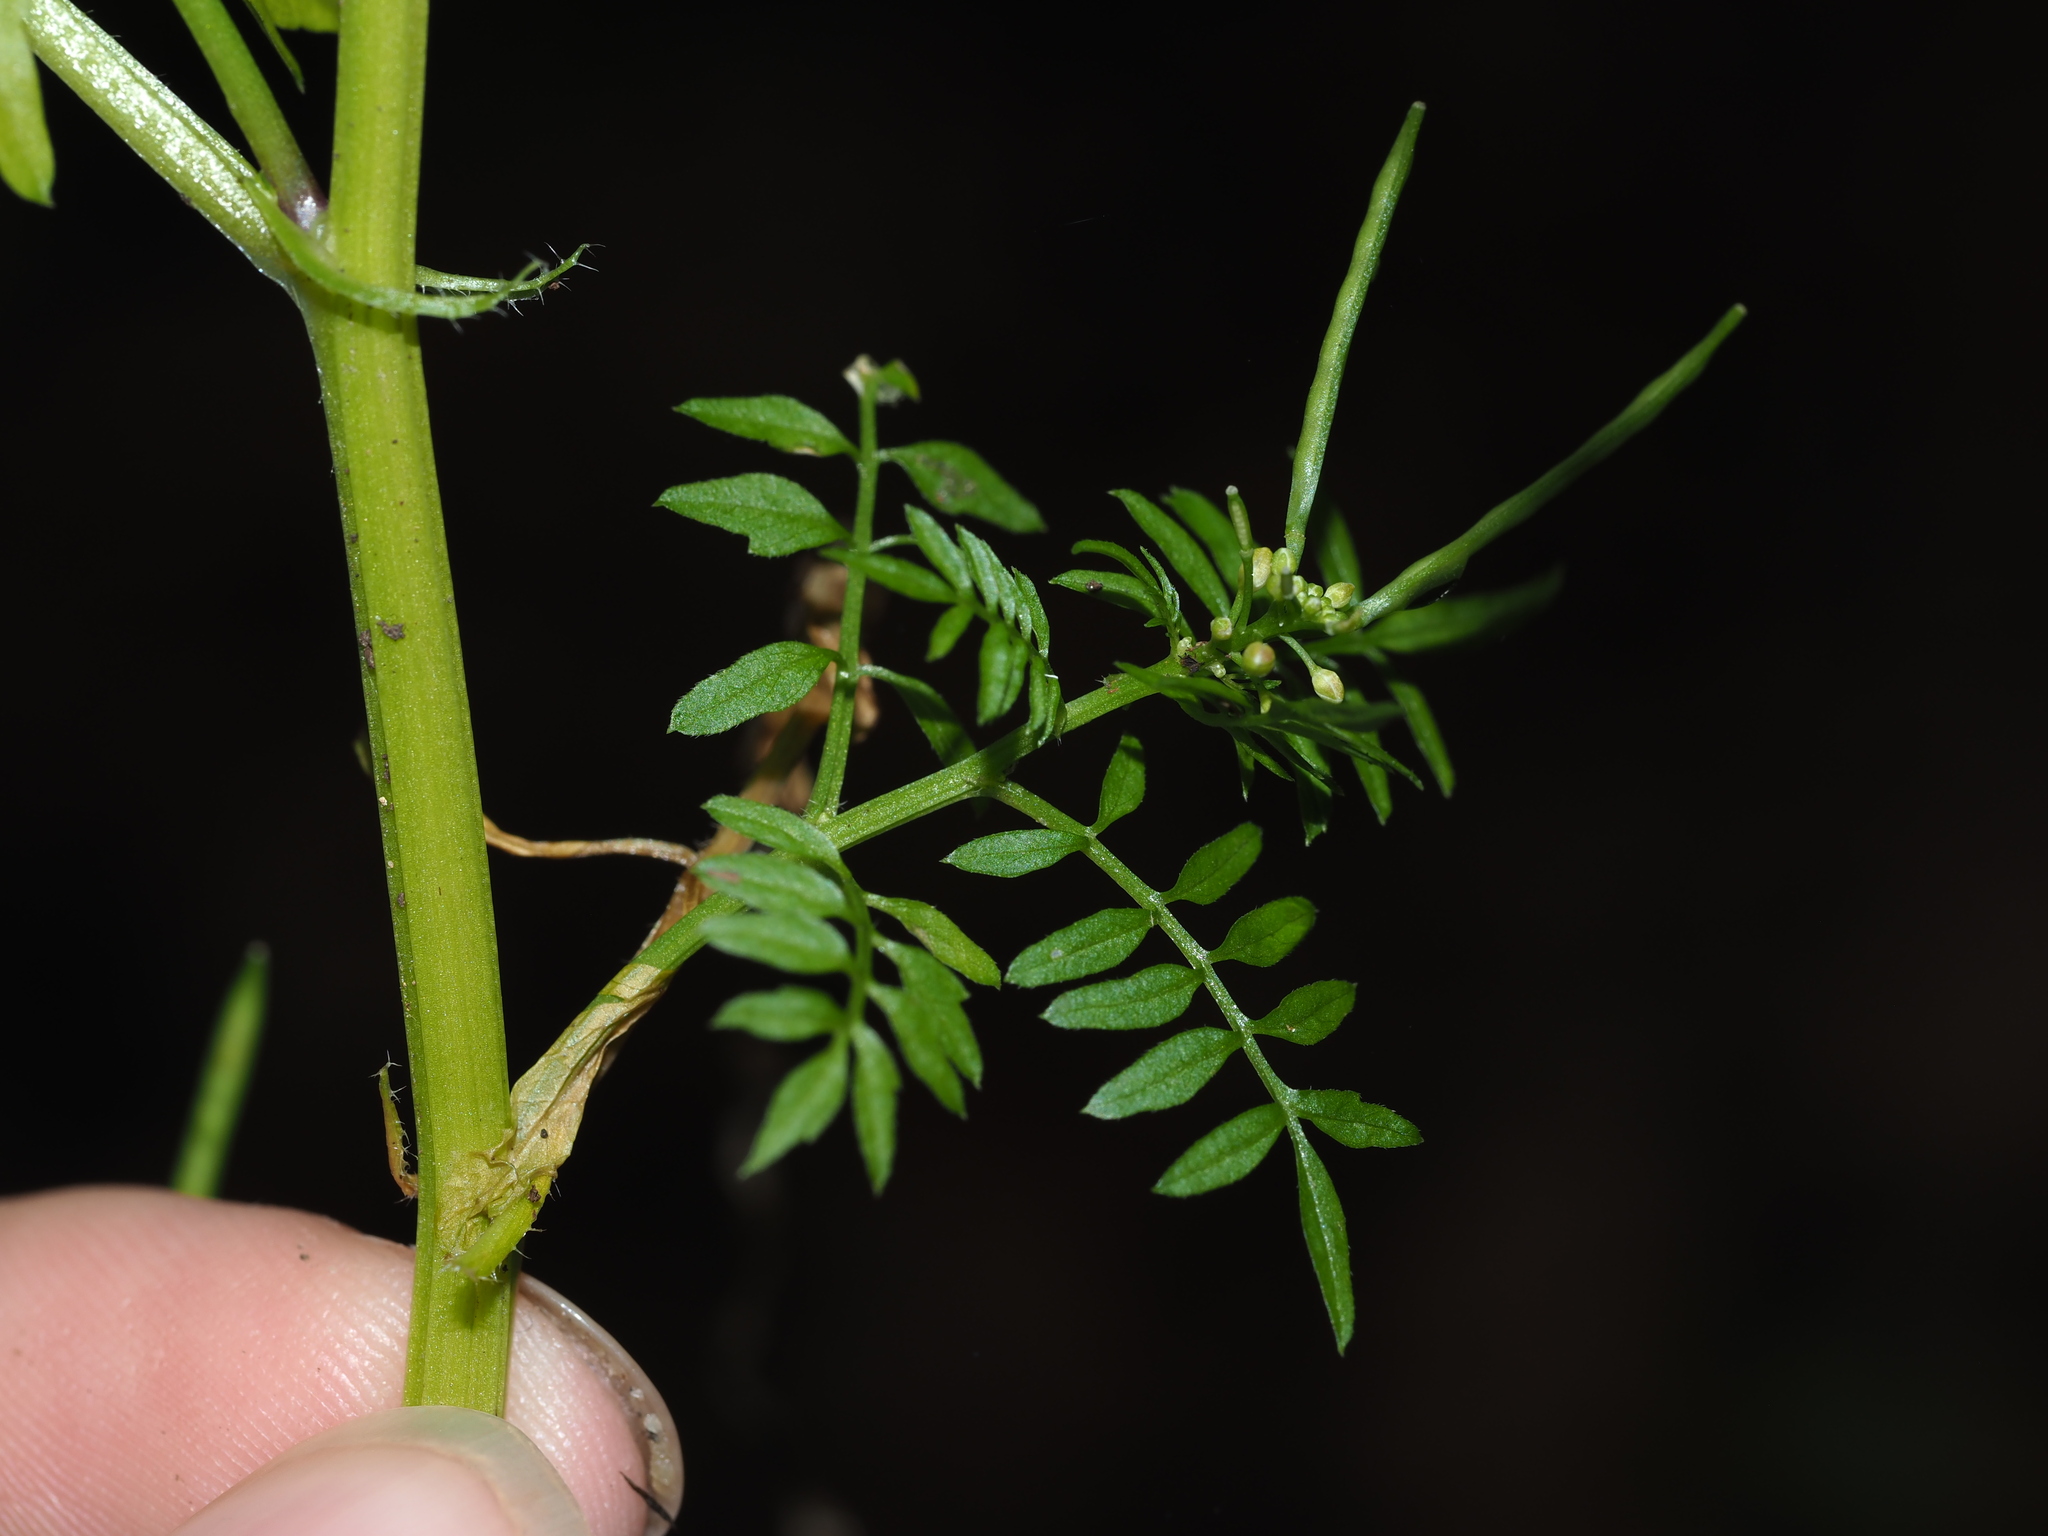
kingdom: Plantae
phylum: Tracheophyta
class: Magnoliopsida
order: Brassicales
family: Brassicaceae
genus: Cardamine
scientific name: Cardamine impatiens
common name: Narrow-leaved bitter-cress
